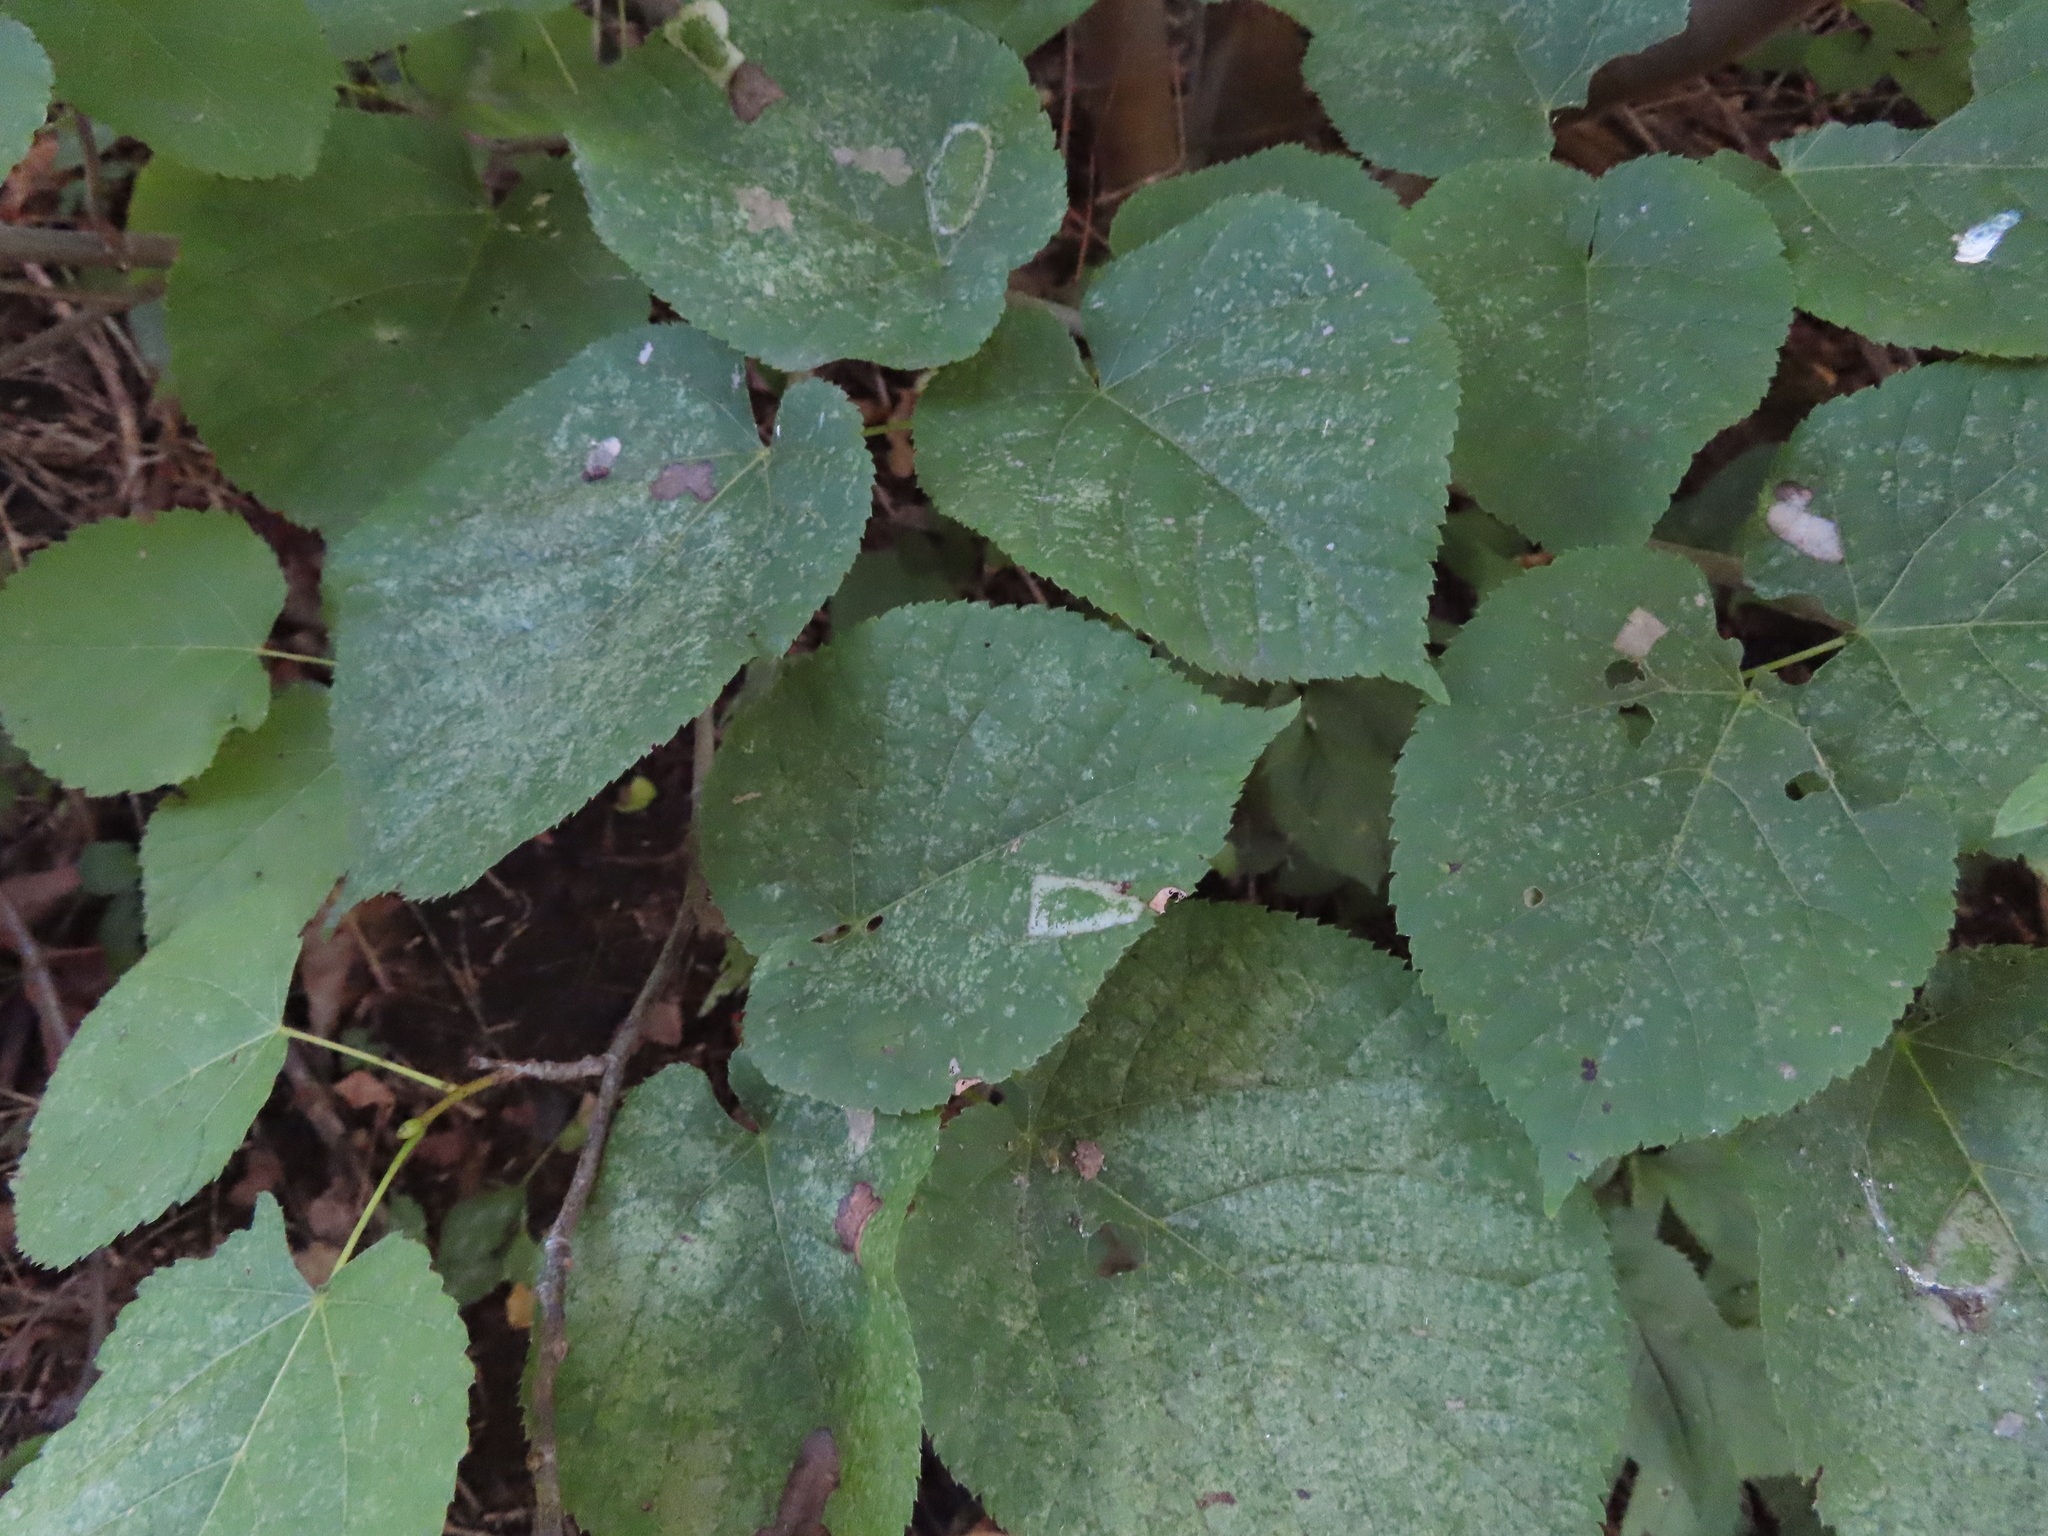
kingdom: Animalia
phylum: Arthropoda
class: Insecta
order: Lepidoptera
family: Gracillariidae
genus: Phyllonorycter
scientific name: Phyllonorycter lucetiella
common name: Basswood miner moth
